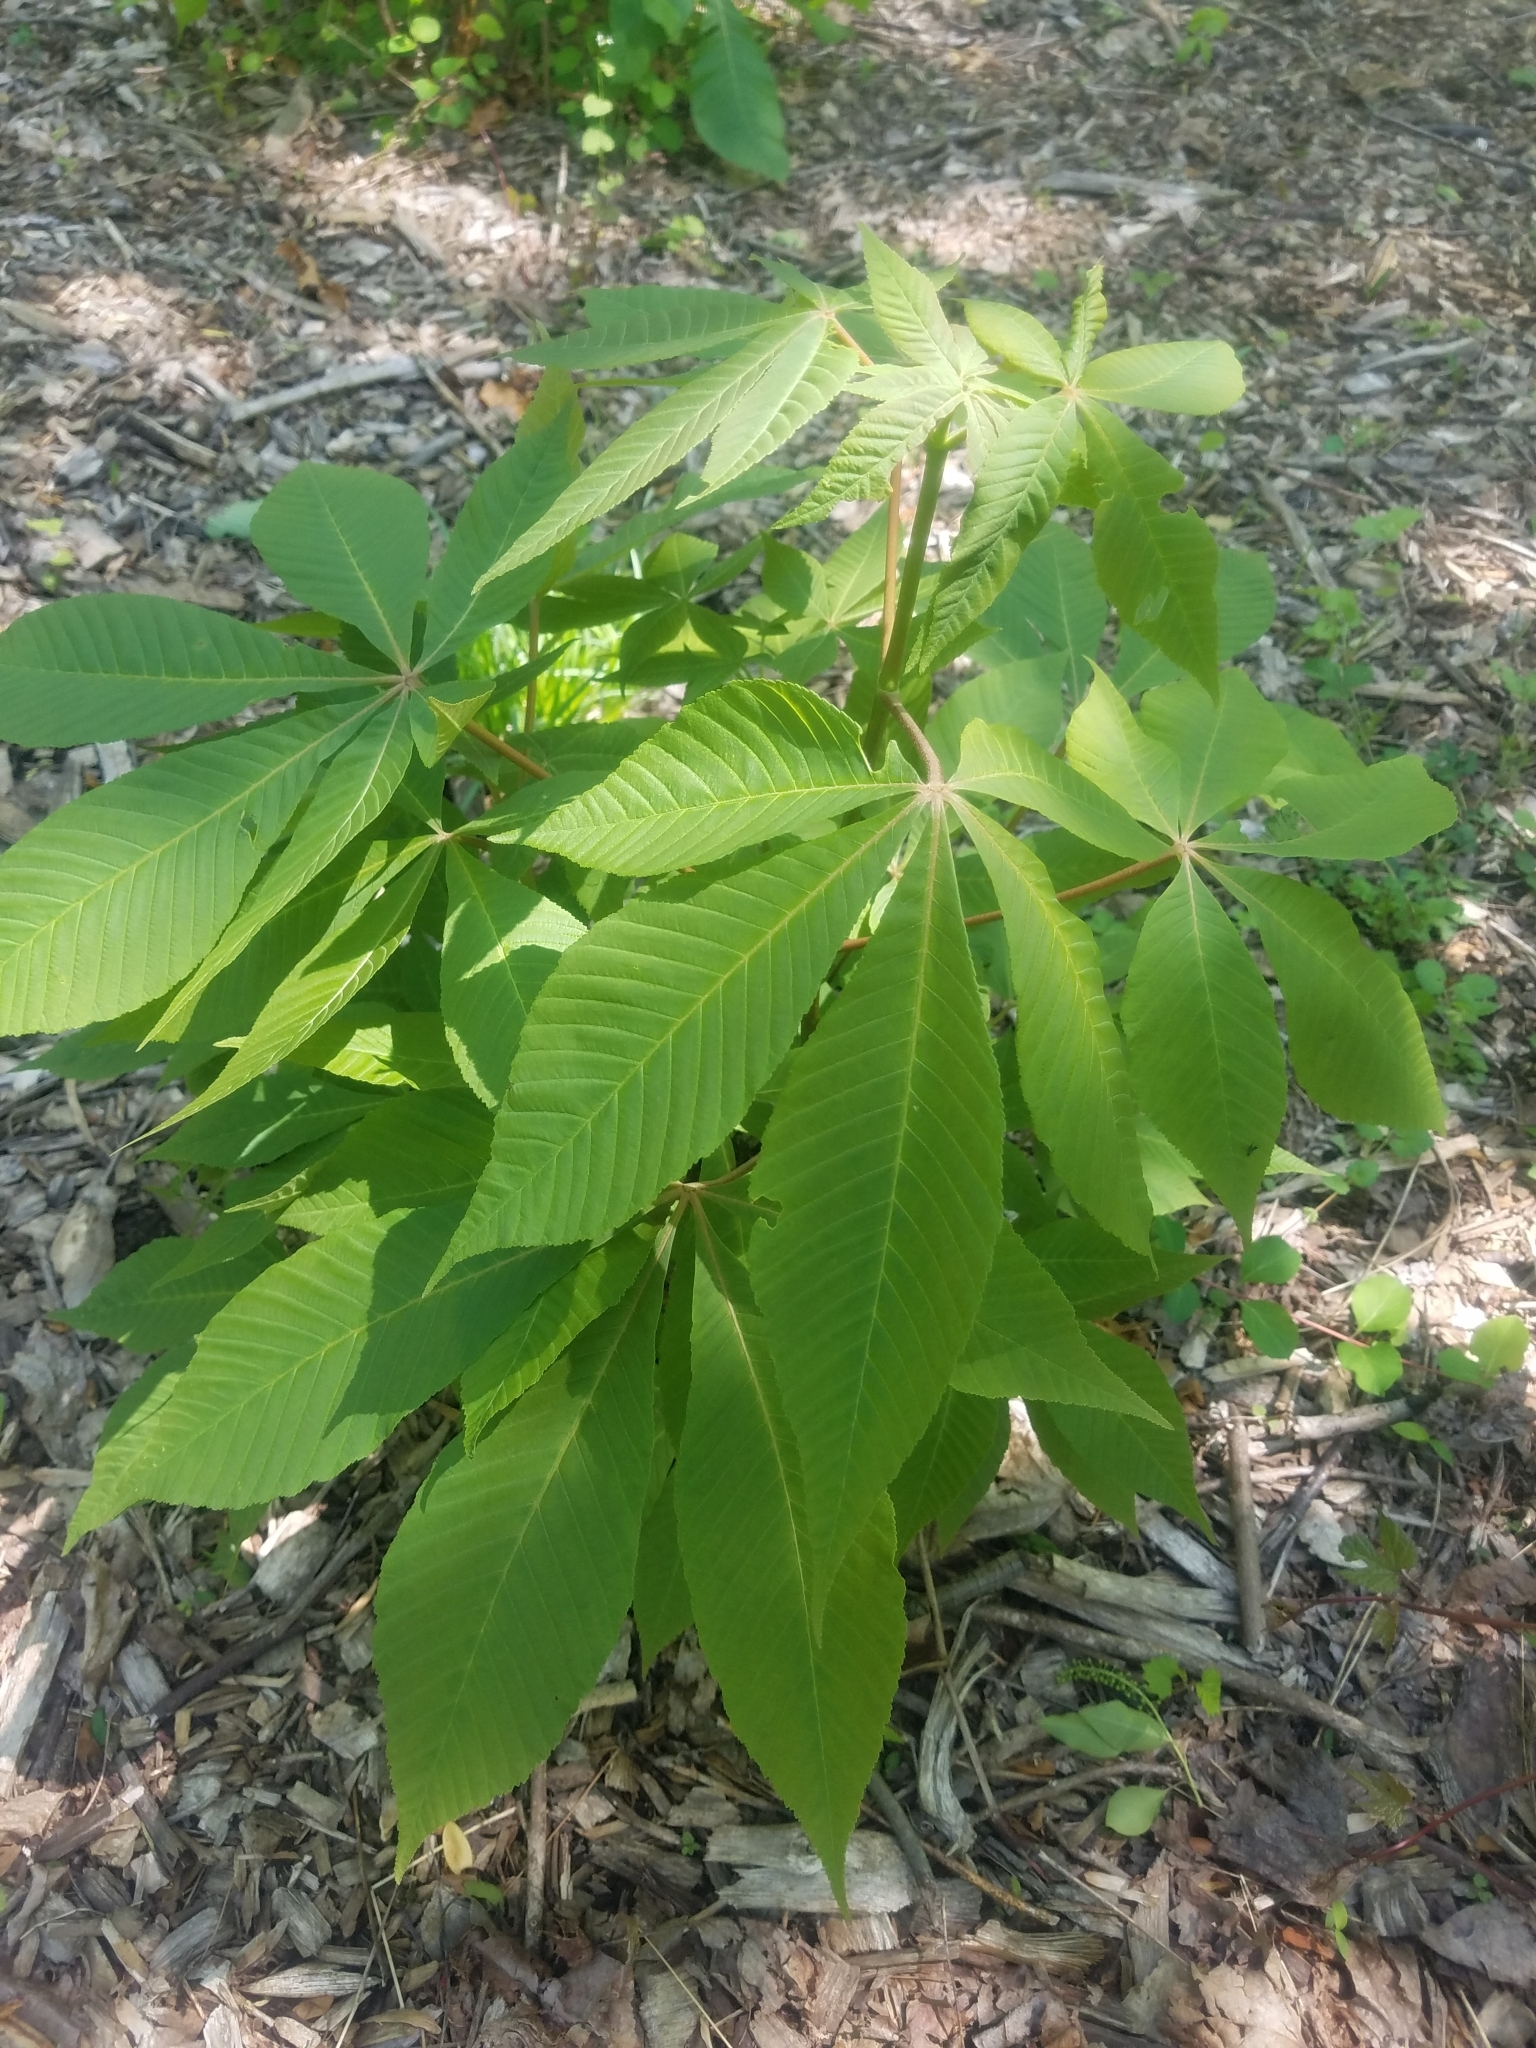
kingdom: Plantae
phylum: Tracheophyta
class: Magnoliopsida
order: Sapindales
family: Sapindaceae
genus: Aesculus
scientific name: Aesculus flava
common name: Yellow buckeye
